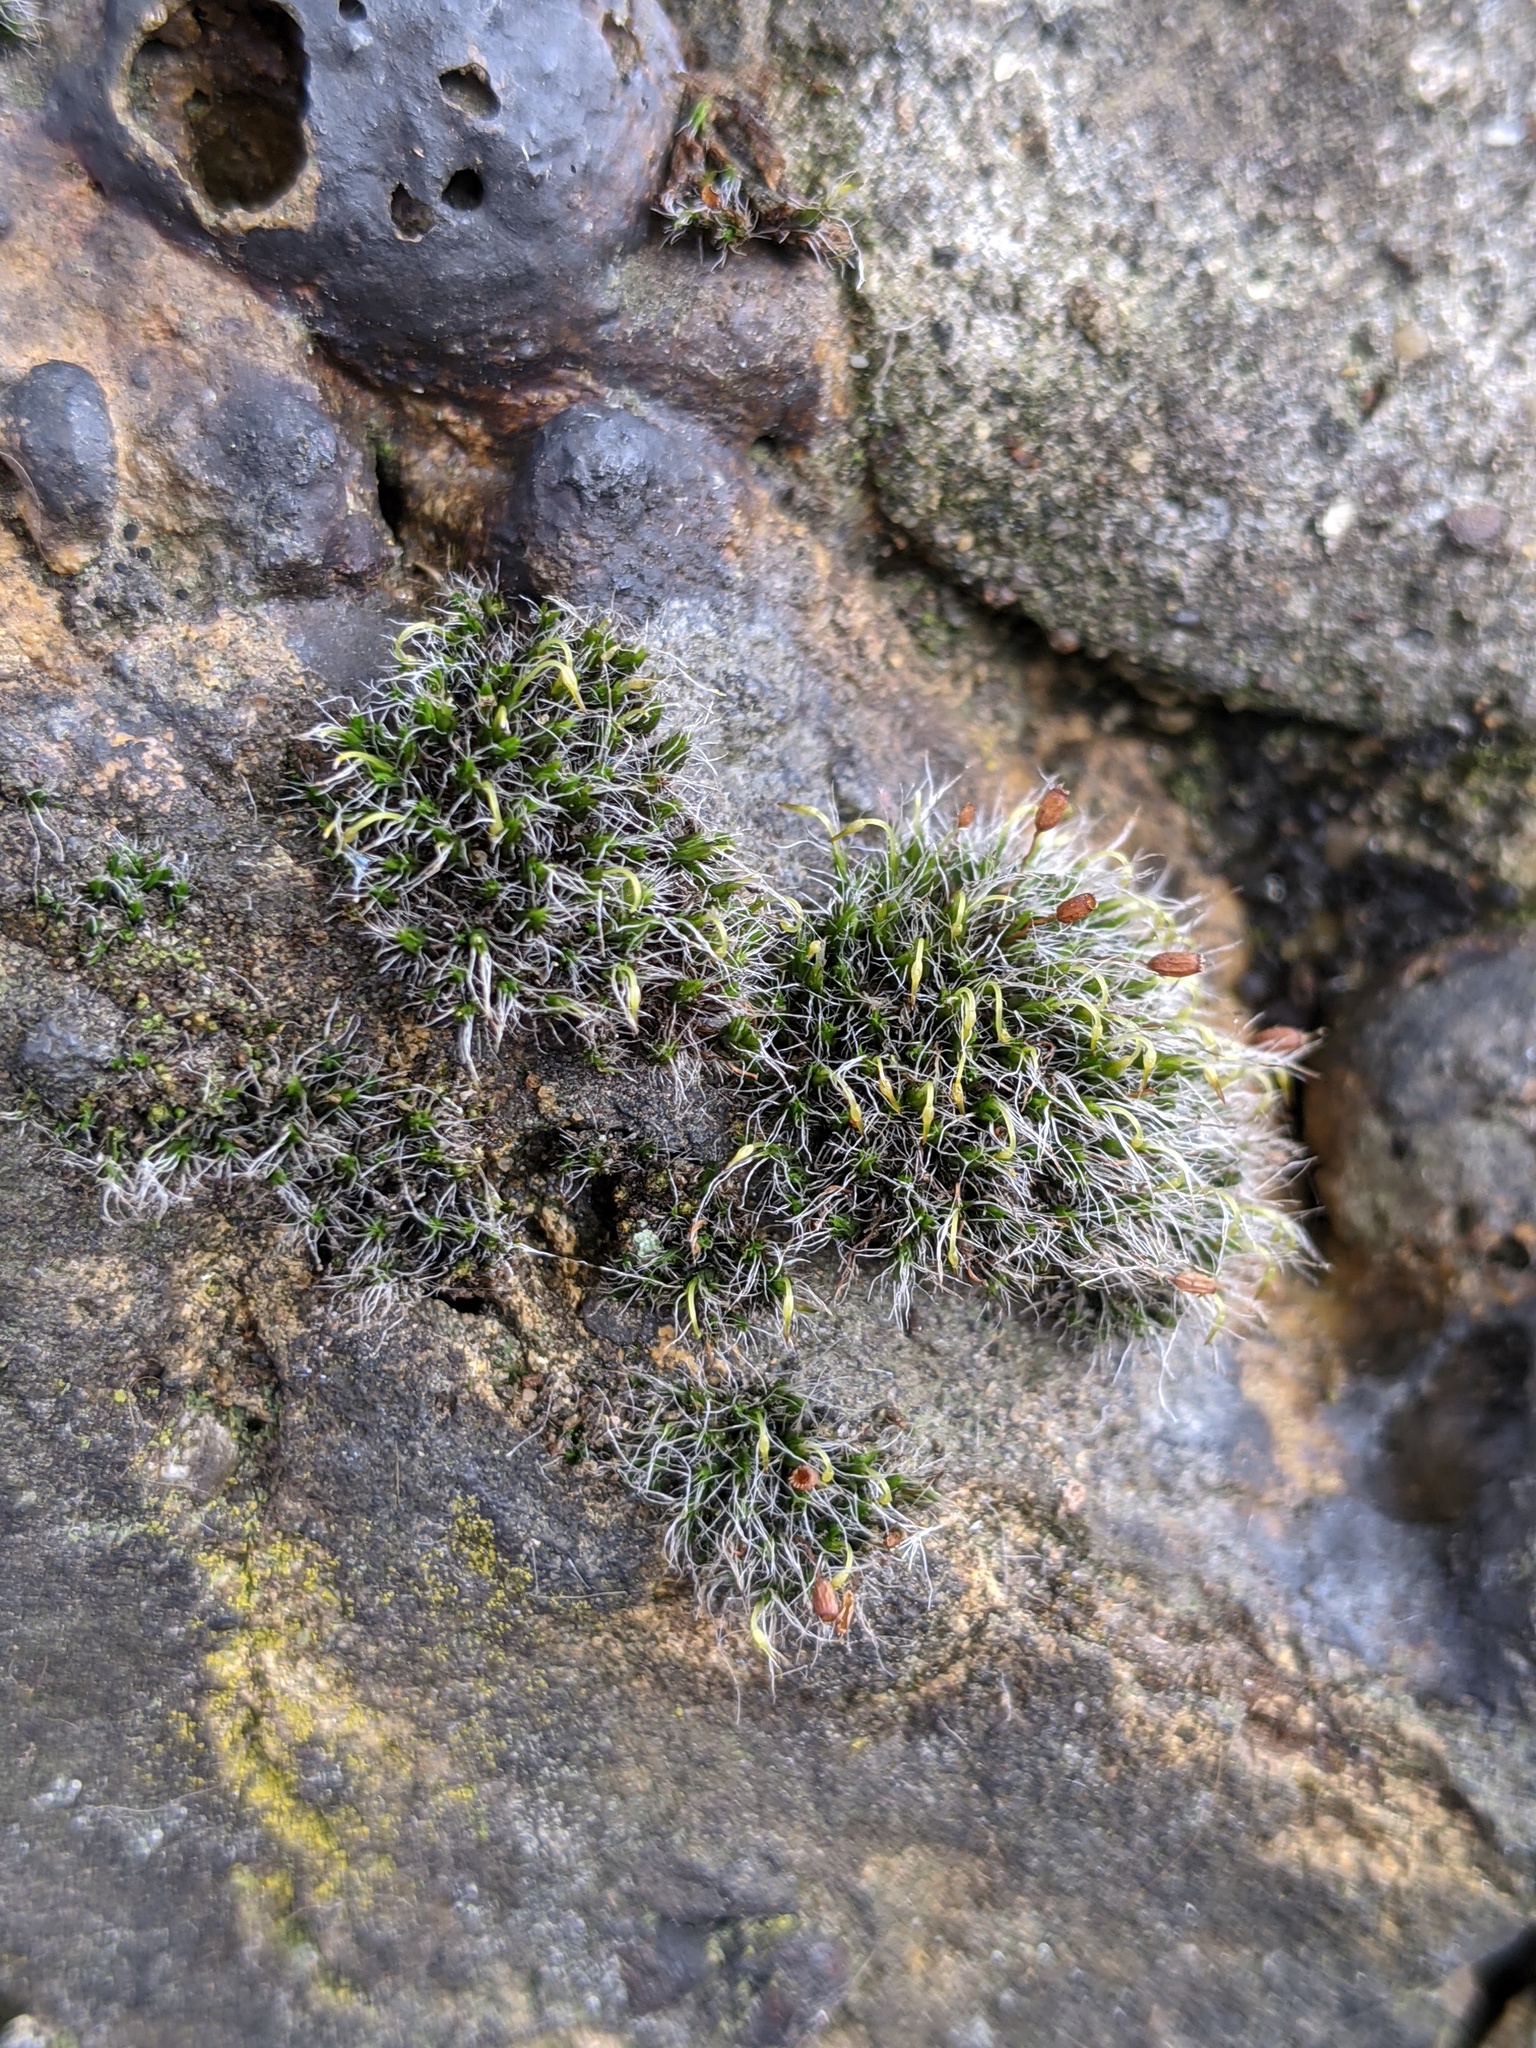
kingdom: Plantae
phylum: Bryophyta
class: Bryopsida
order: Grimmiales
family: Grimmiaceae
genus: Grimmia
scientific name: Grimmia pulvinata
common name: Grey-cushioned grimmia
